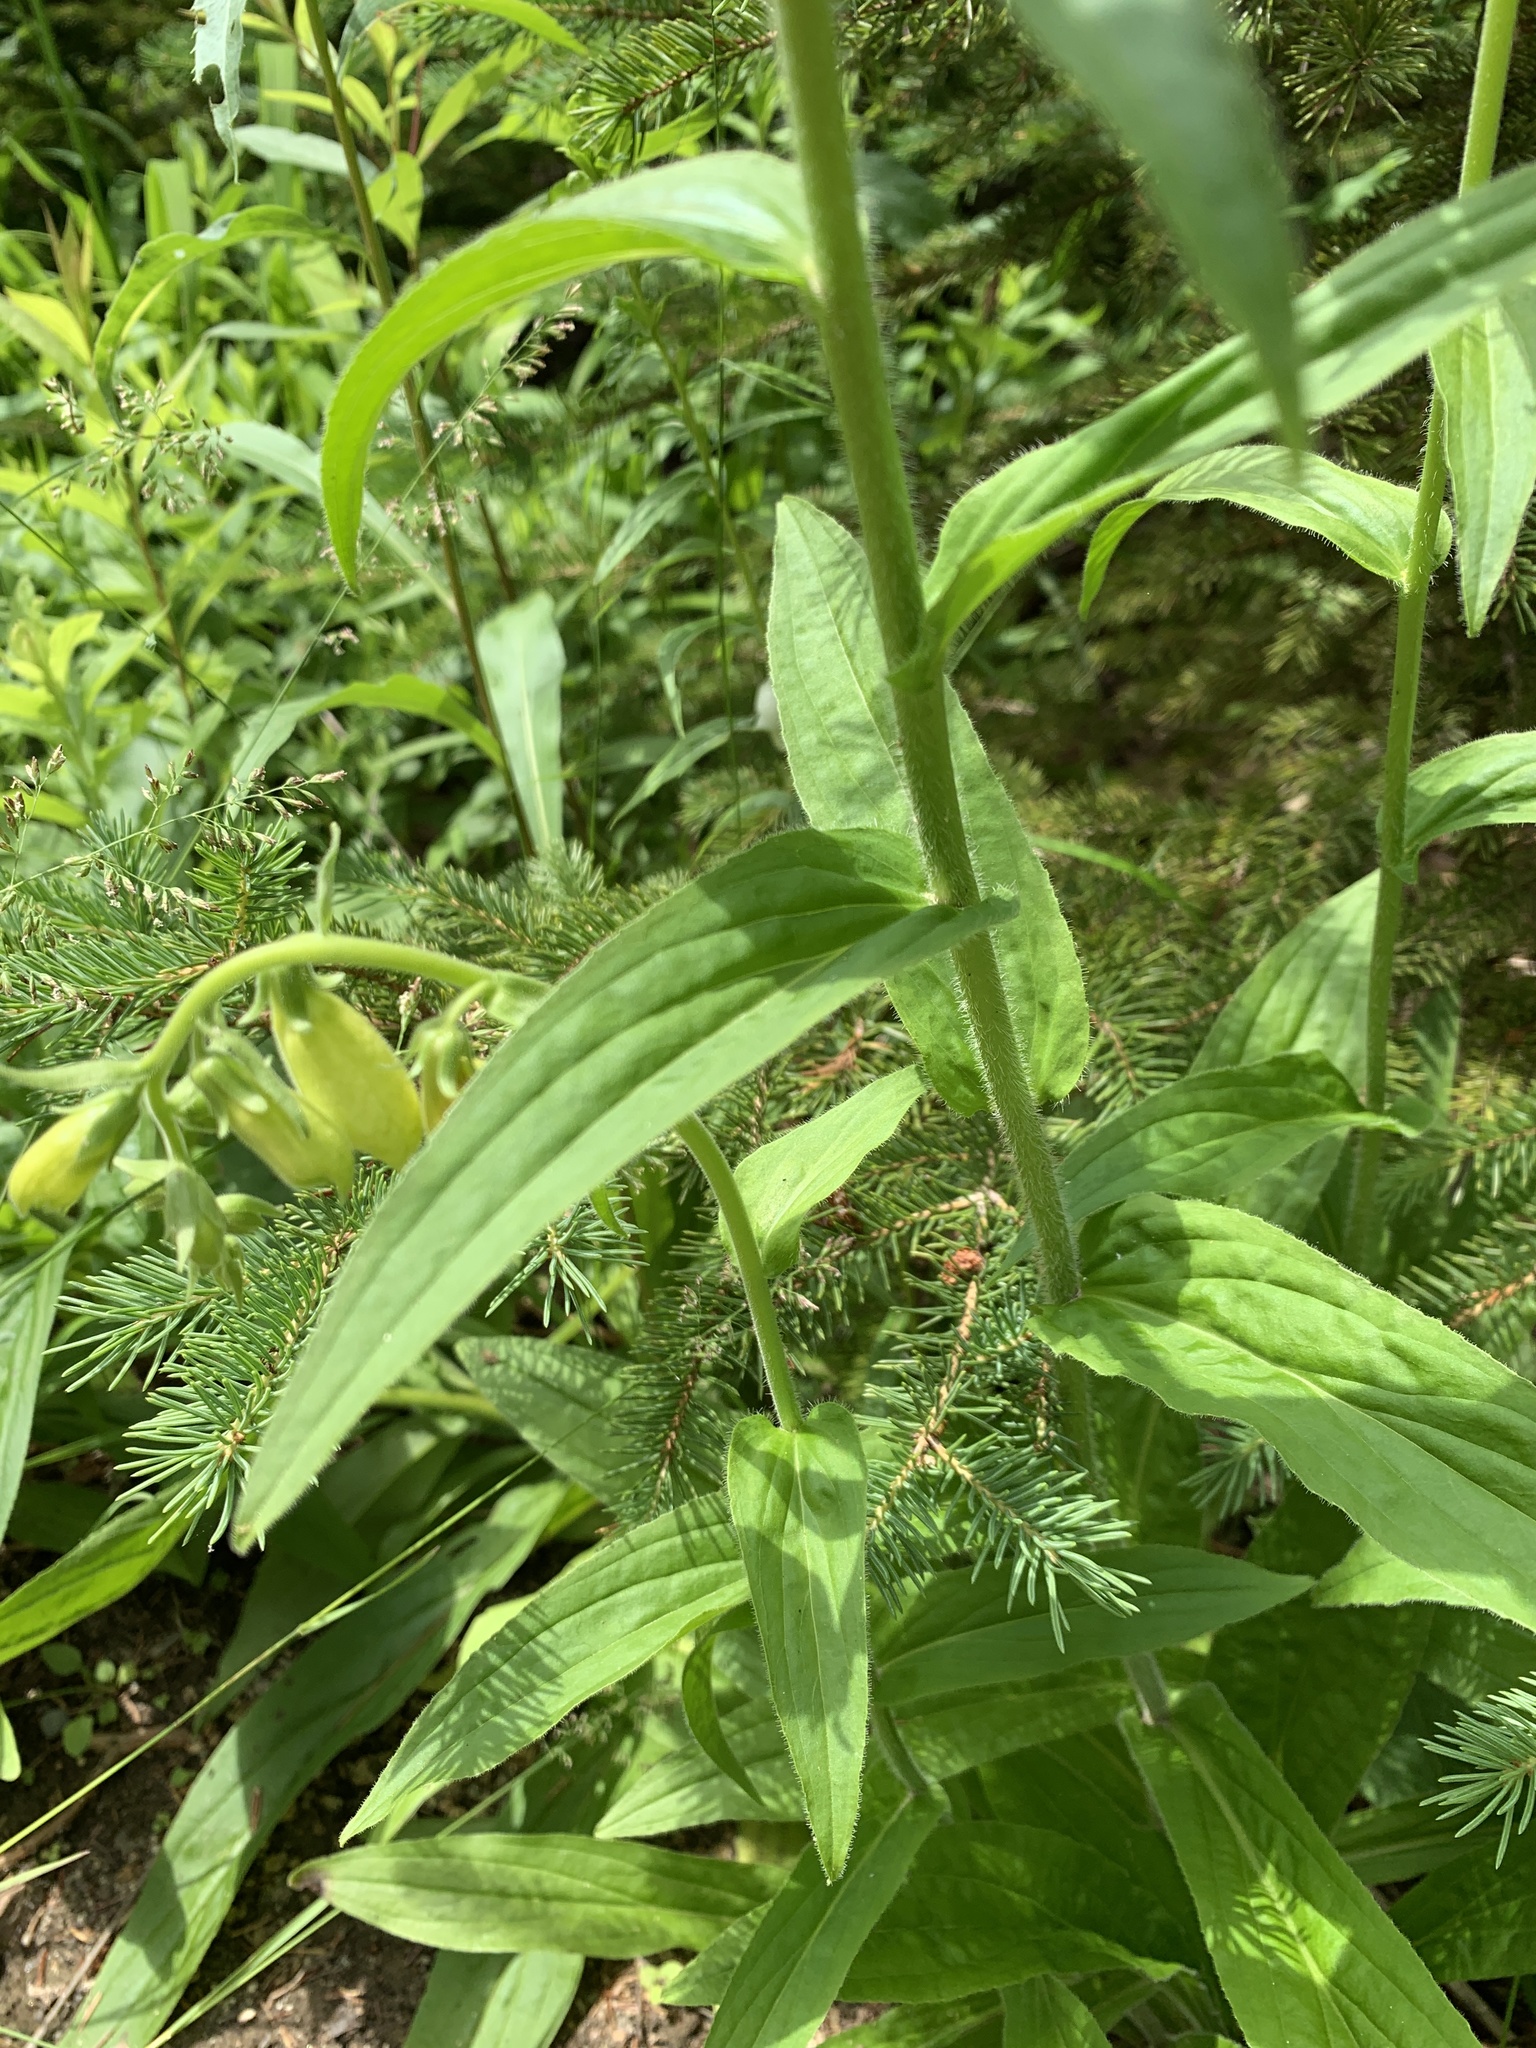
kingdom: Plantae
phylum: Tracheophyta
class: Magnoliopsida
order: Lamiales
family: Plantaginaceae
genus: Digitalis
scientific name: Digitalis grandiflora
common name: Yellow foxglove
